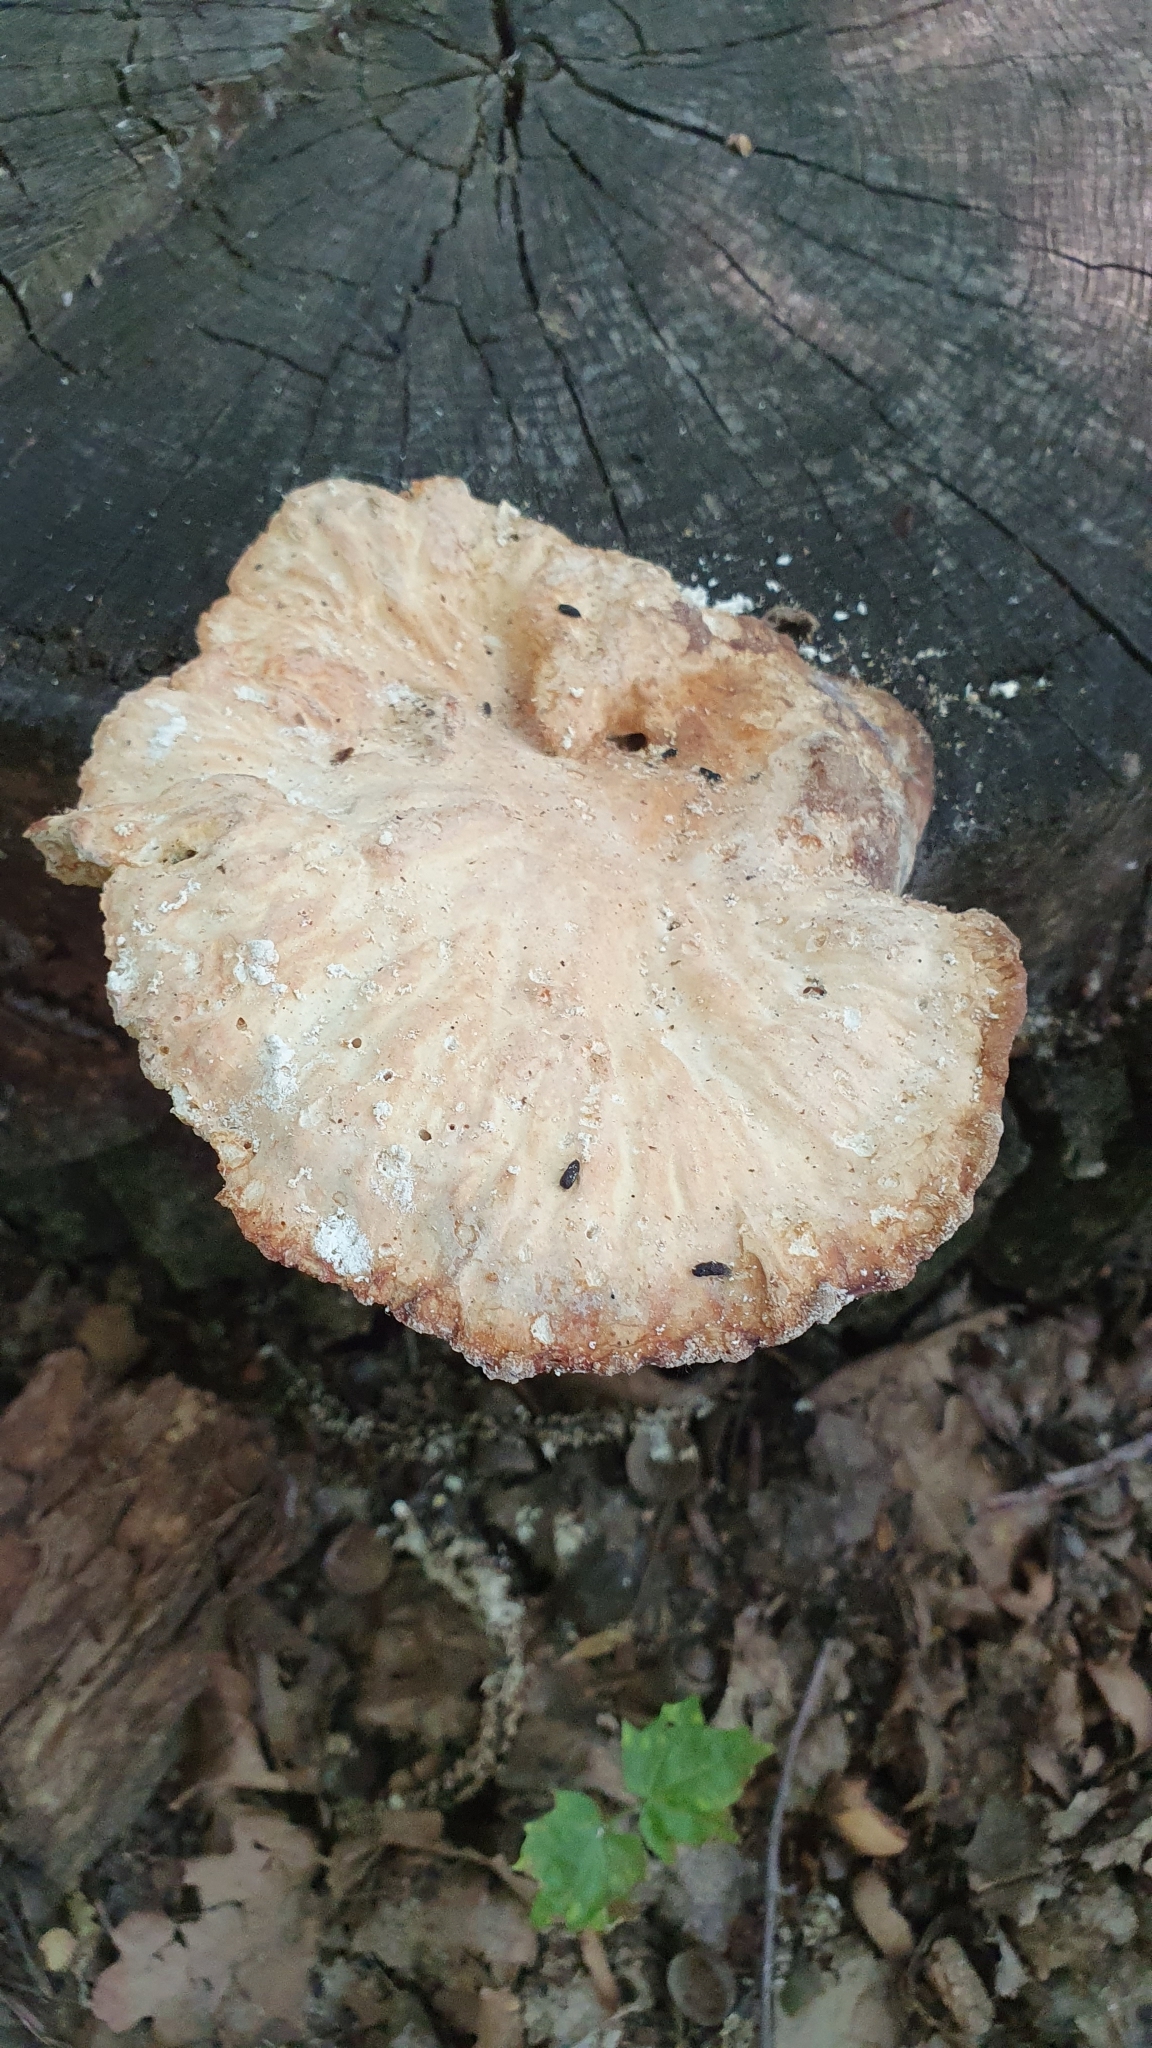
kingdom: Fungi
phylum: Basidiomycota
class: Agaricomycetes
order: Polyporales
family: Laetiporaceae
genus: Laetiporus
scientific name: Laetiporus sulphureus
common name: Chicken of the woods
